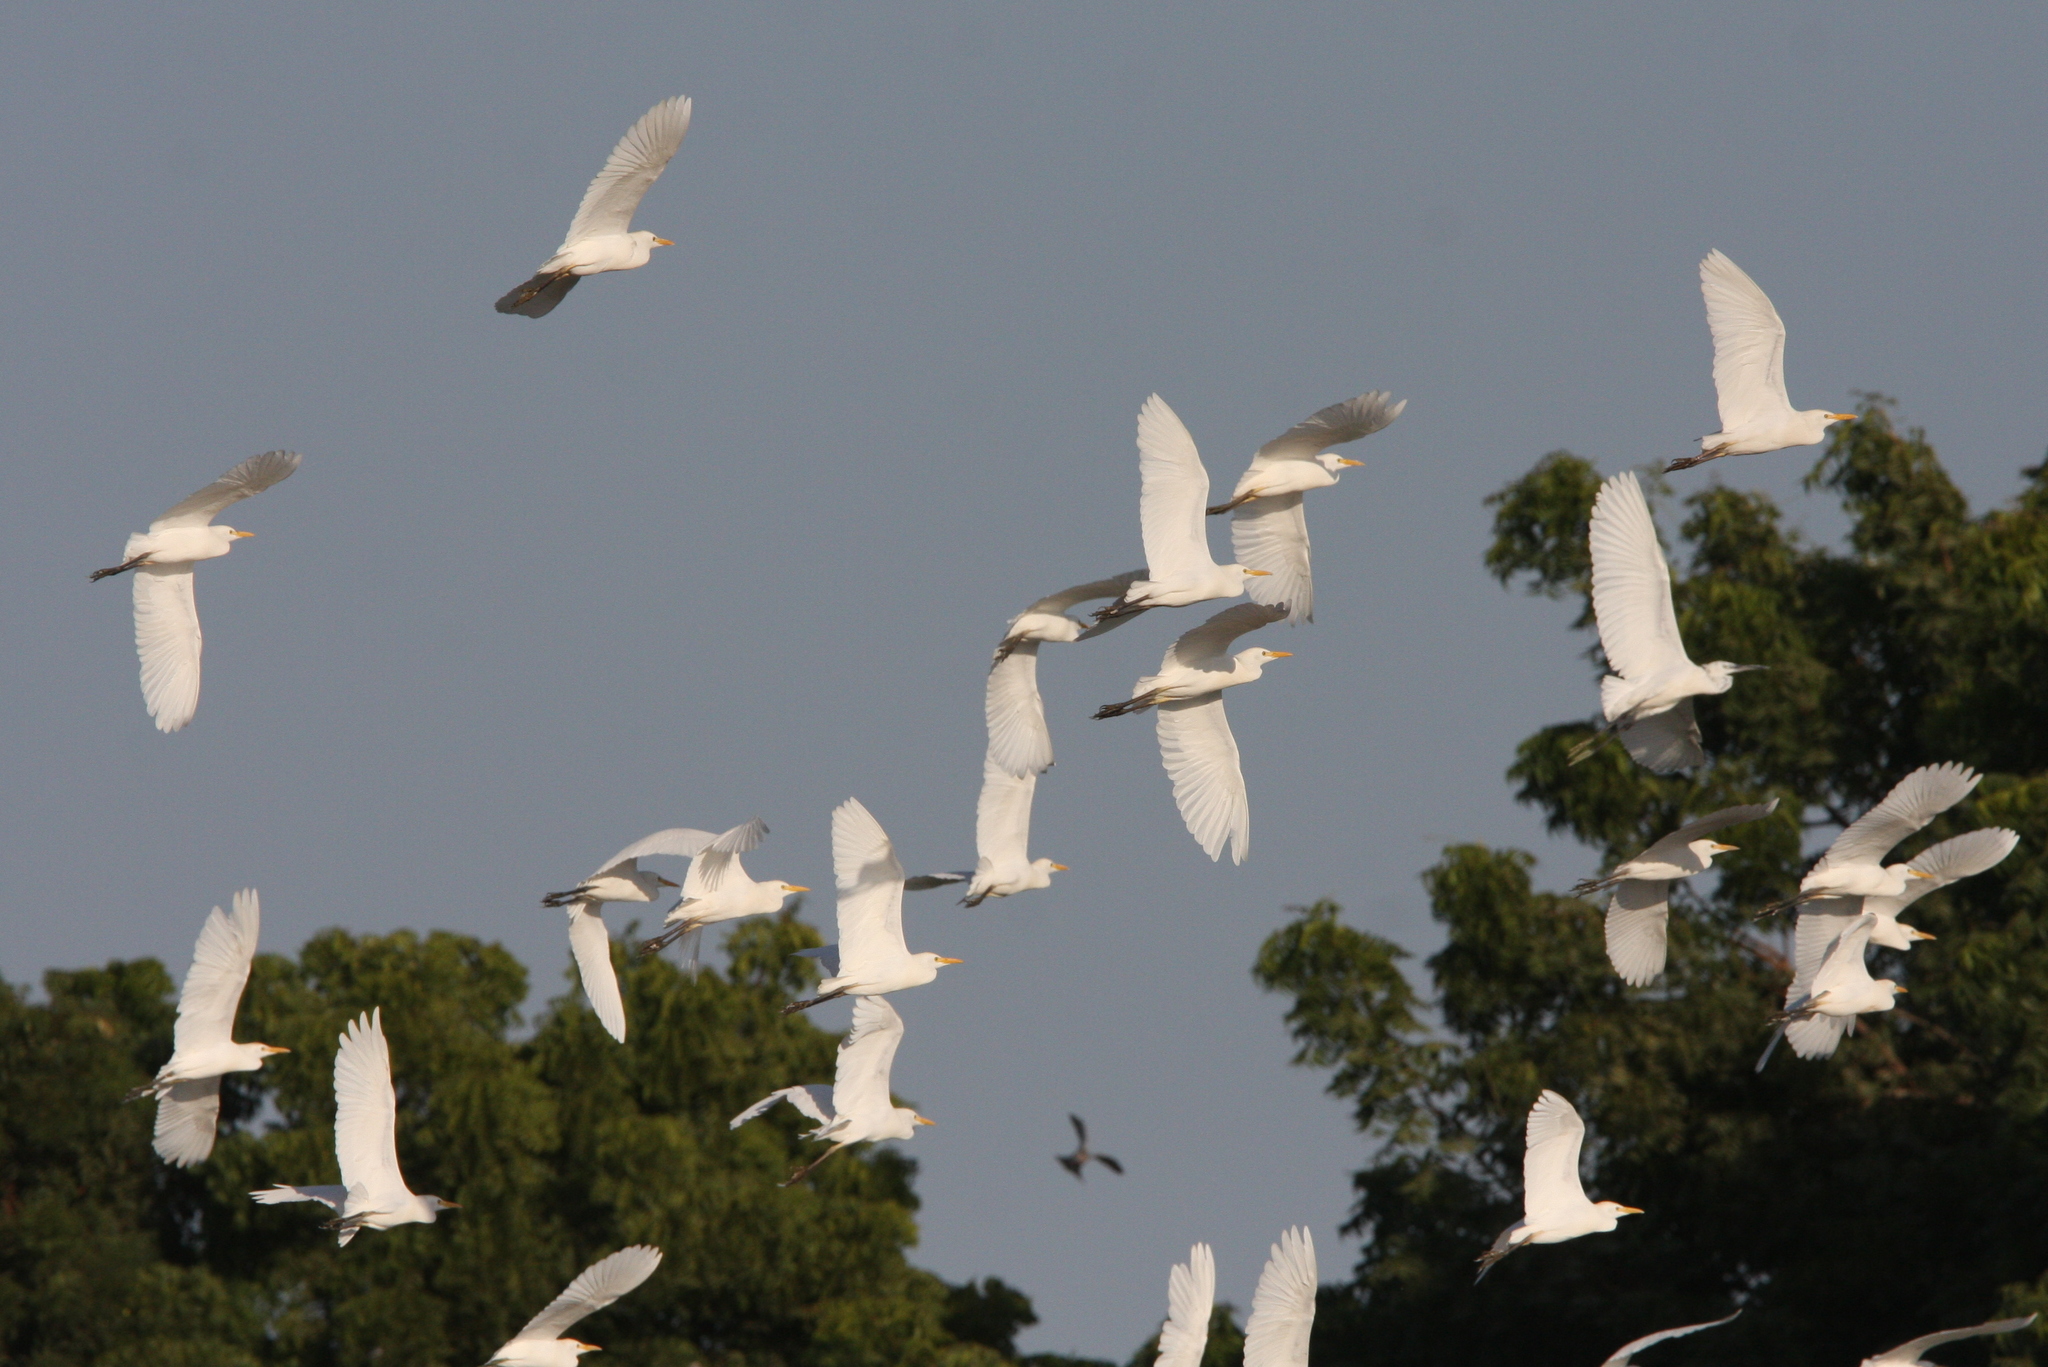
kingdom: Animalia
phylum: Chordata
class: Aves
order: Pelecaniformes
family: Ardeidae
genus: Bubulcus
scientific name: Bubulcus ibis
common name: Cattle egret
